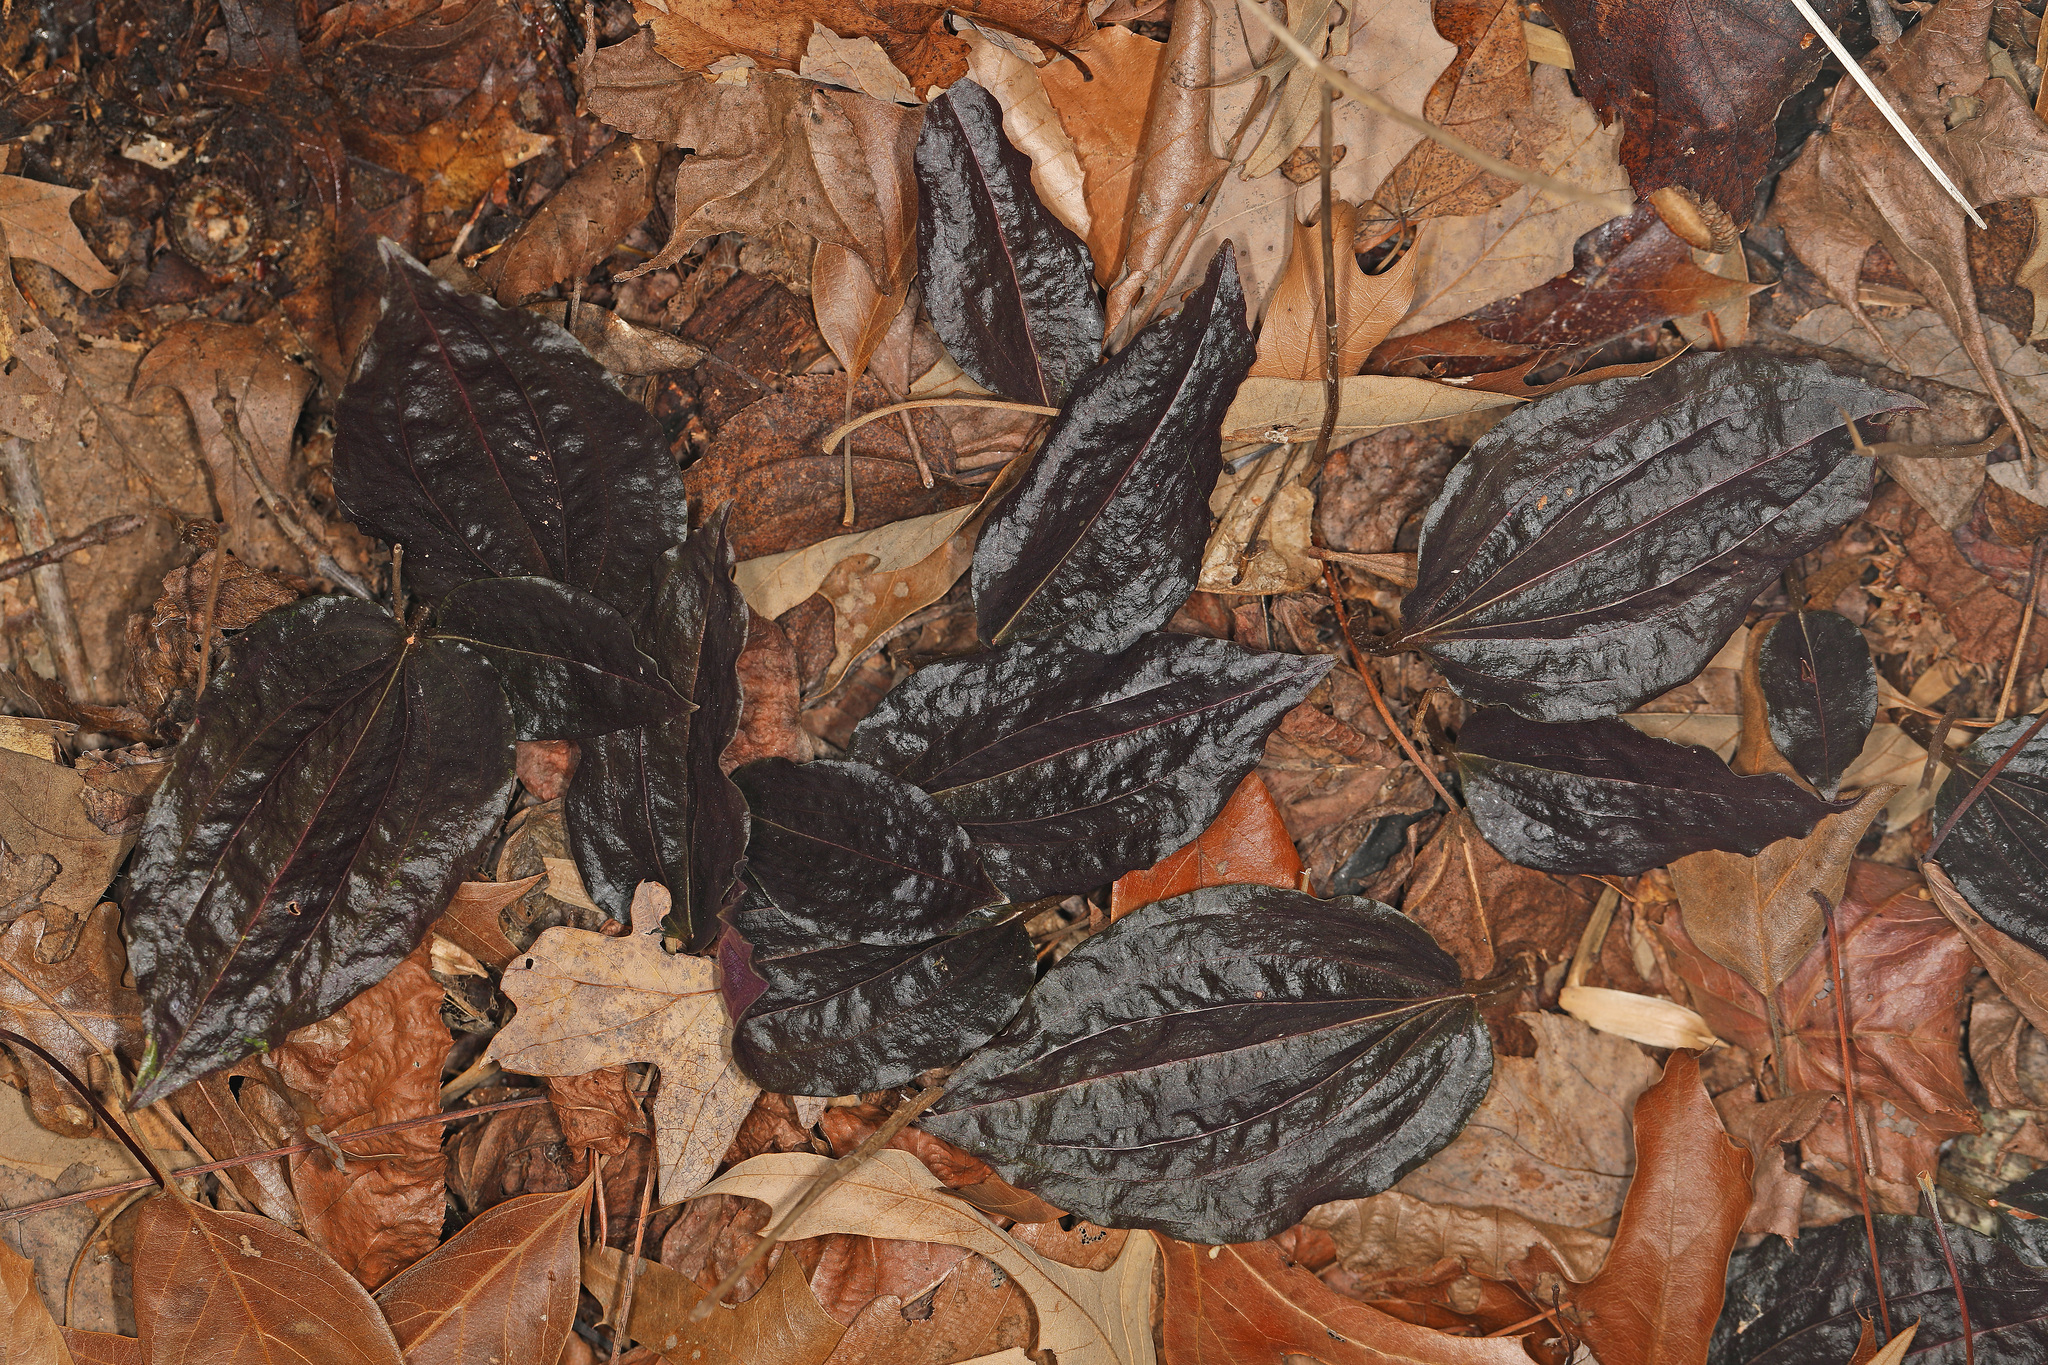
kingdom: Plantae
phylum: Tracheophyta
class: Liliopsida
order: Asparagales
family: Orchidaceae
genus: Tipularia
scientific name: Tipularia discolor
